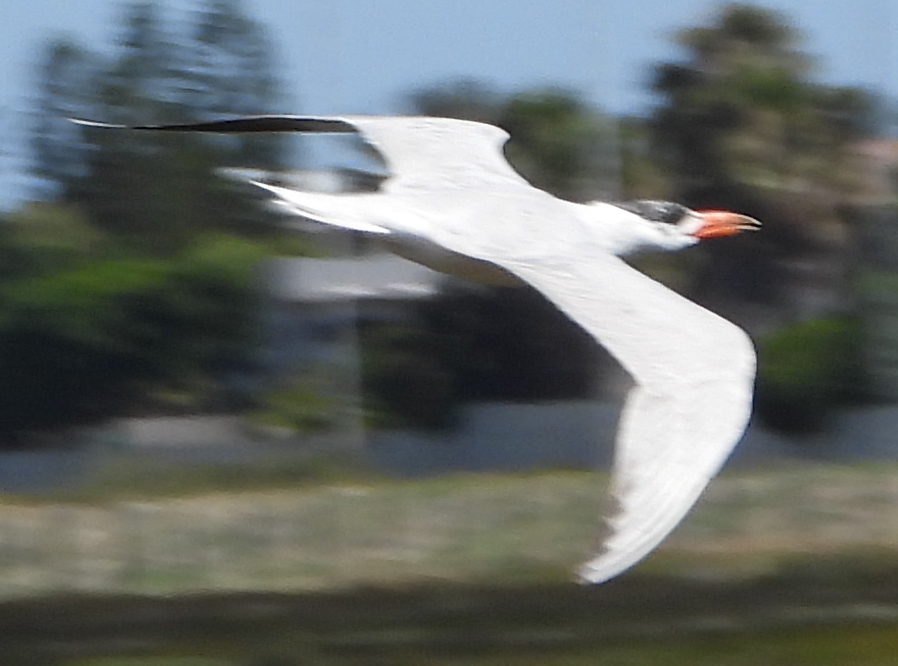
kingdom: Animalia
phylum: Chordata
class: Aves
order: Charadriiformes
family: Laridae
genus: Hydroprogne
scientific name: Hydroprogne caspia
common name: Caspian tern
